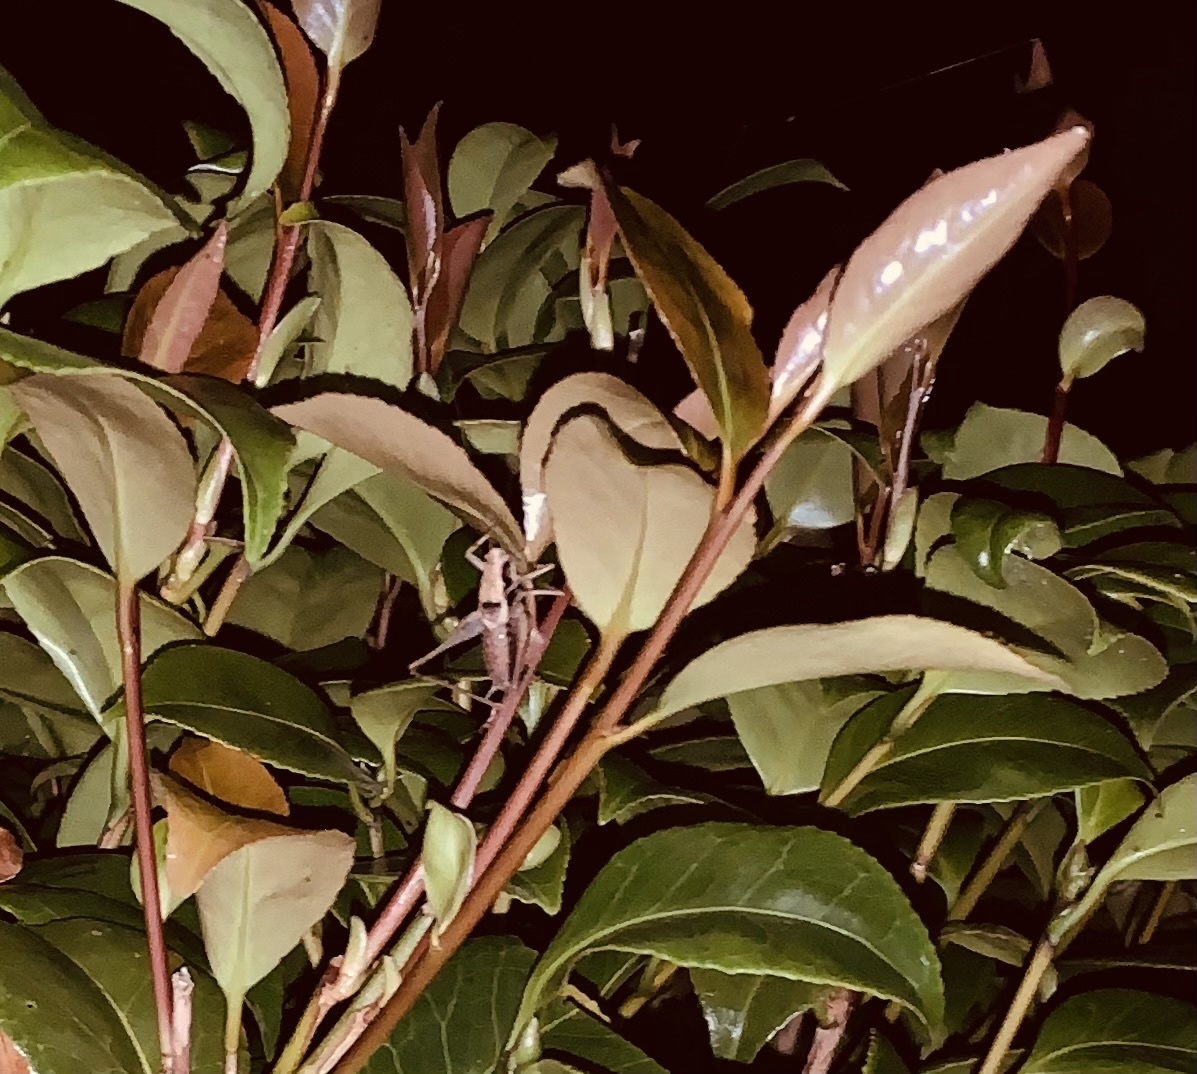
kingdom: Animalia
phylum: Arthropoda
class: Insecta
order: Orthoptera
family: Tettigoniidae
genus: Pholidoptera
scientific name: Pholidoptera griseoaptera
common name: Dark bush-cricket
